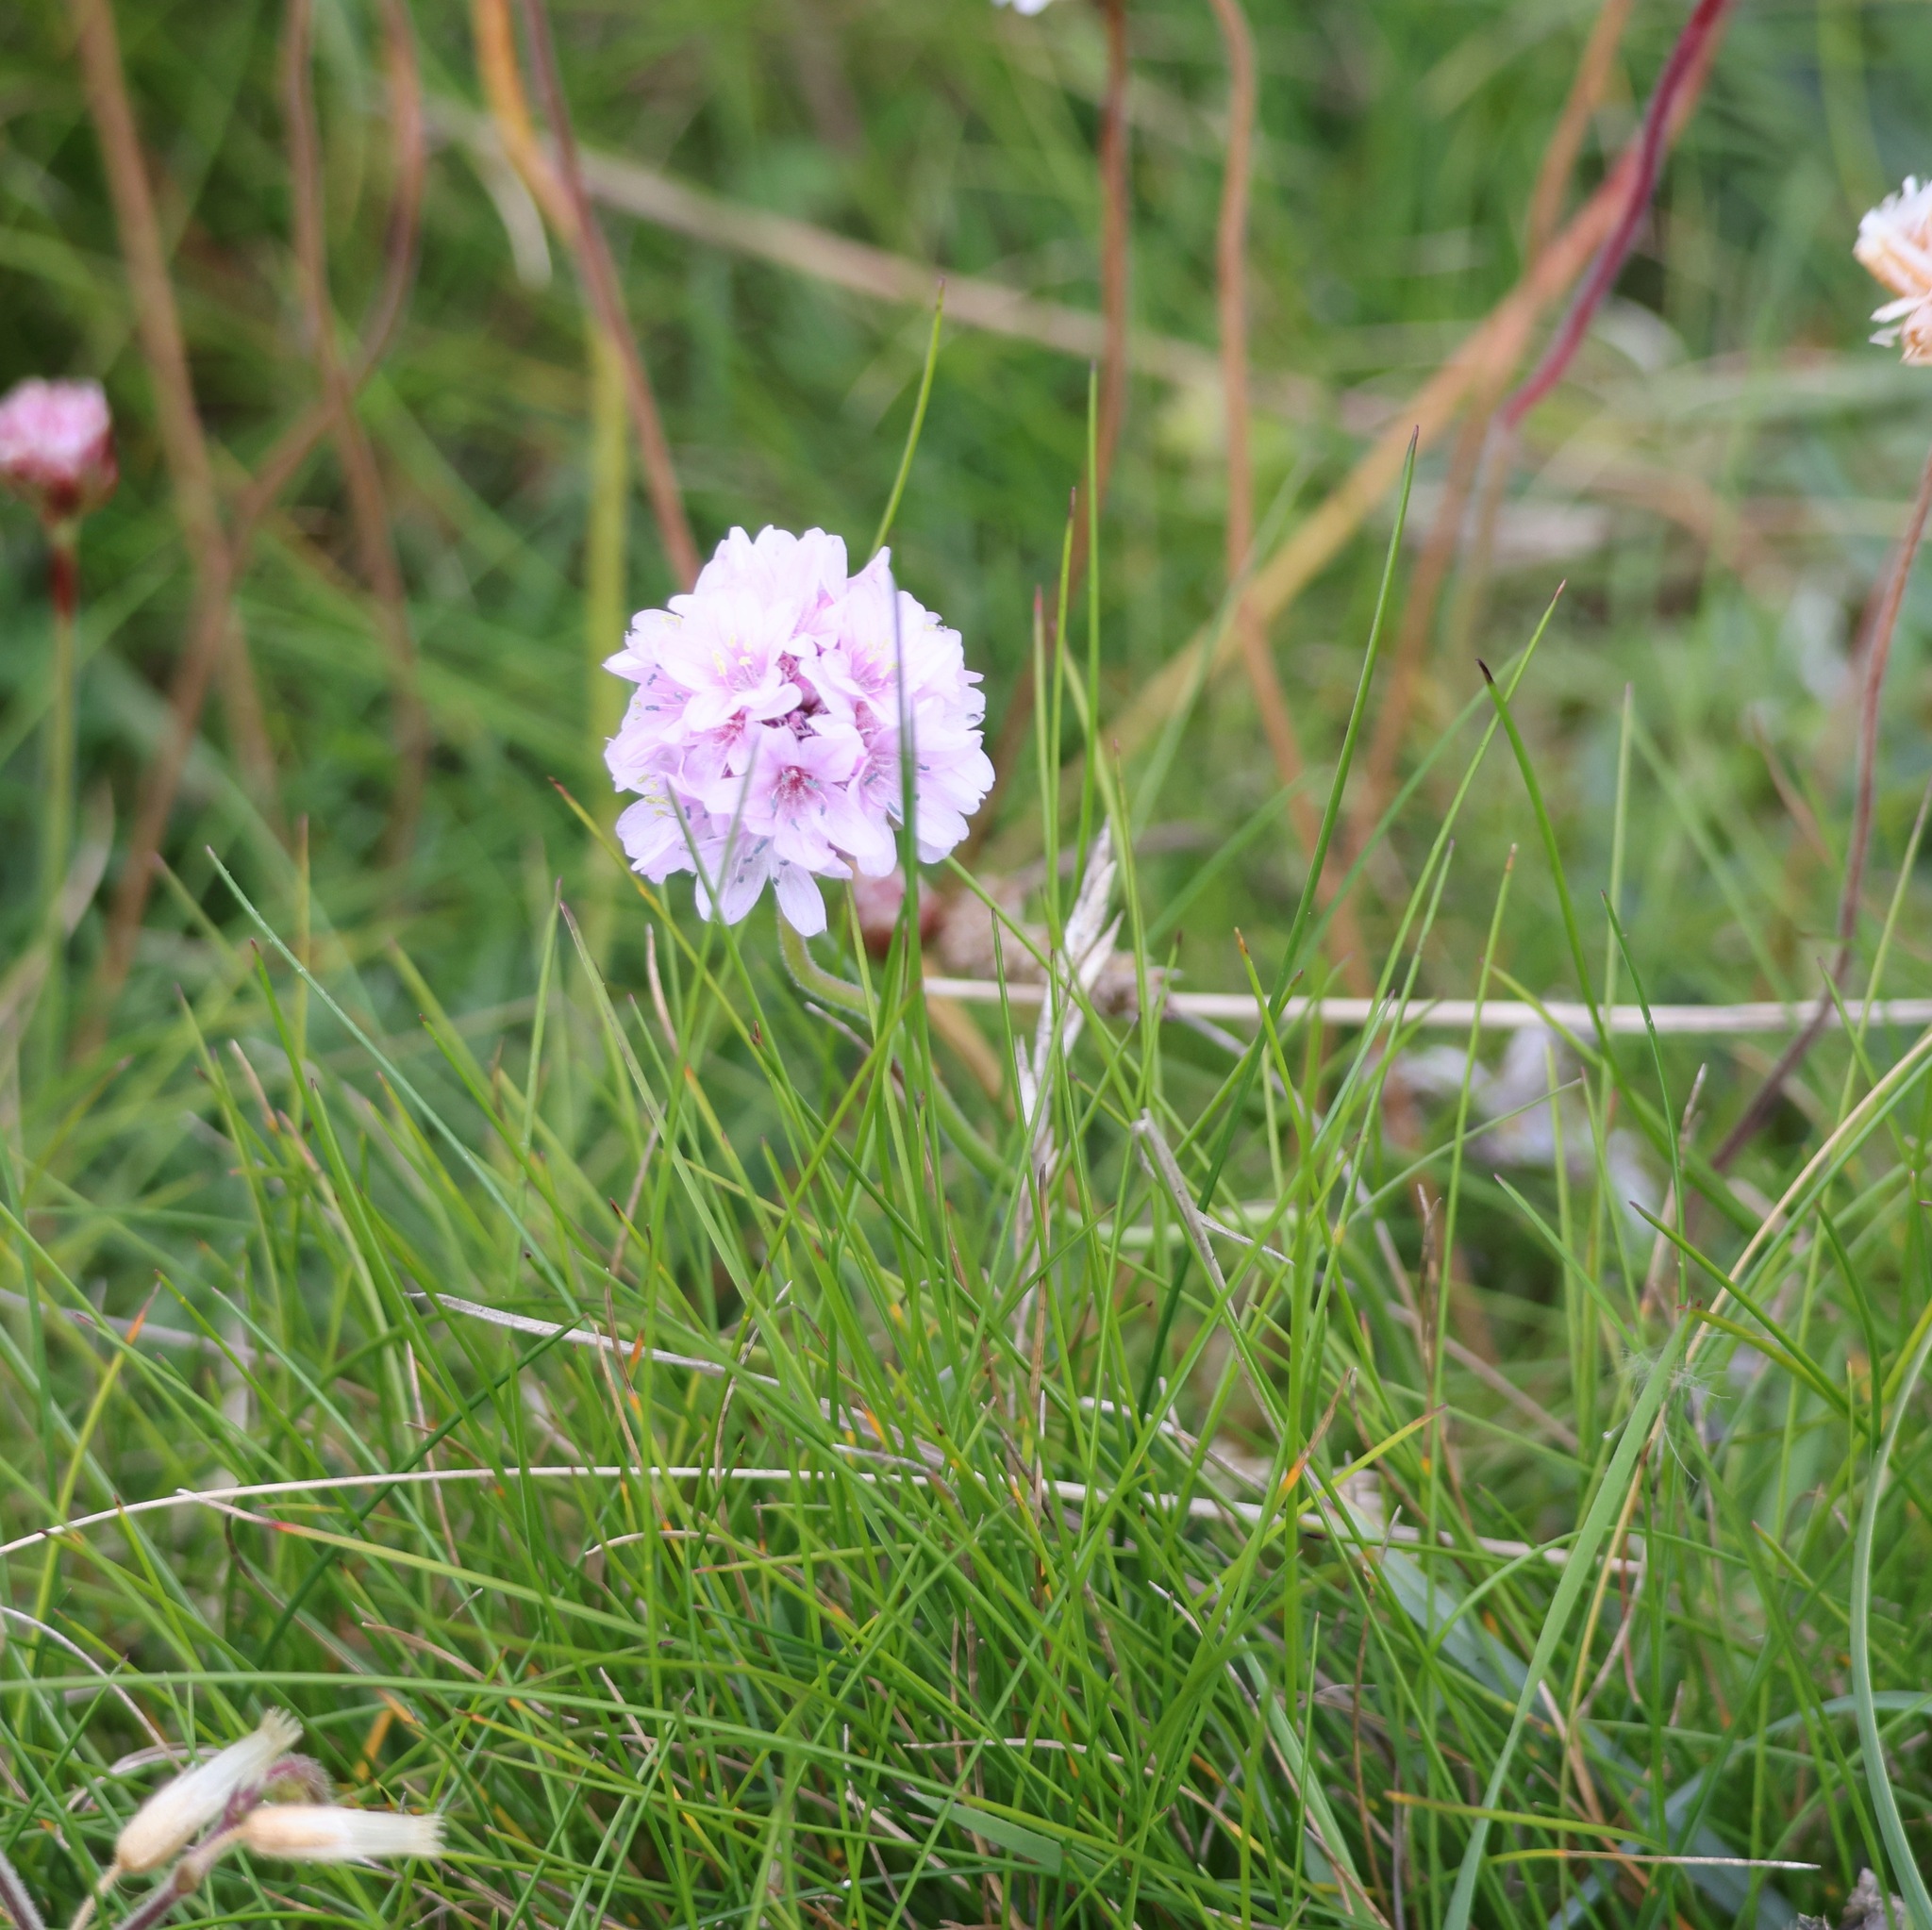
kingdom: Plantae
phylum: Tracheophyta
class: Magnoliopsida
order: Caryophyllales
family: Plumbaginaceae
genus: Armeria
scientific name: Armeria maritima
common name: Thrift
